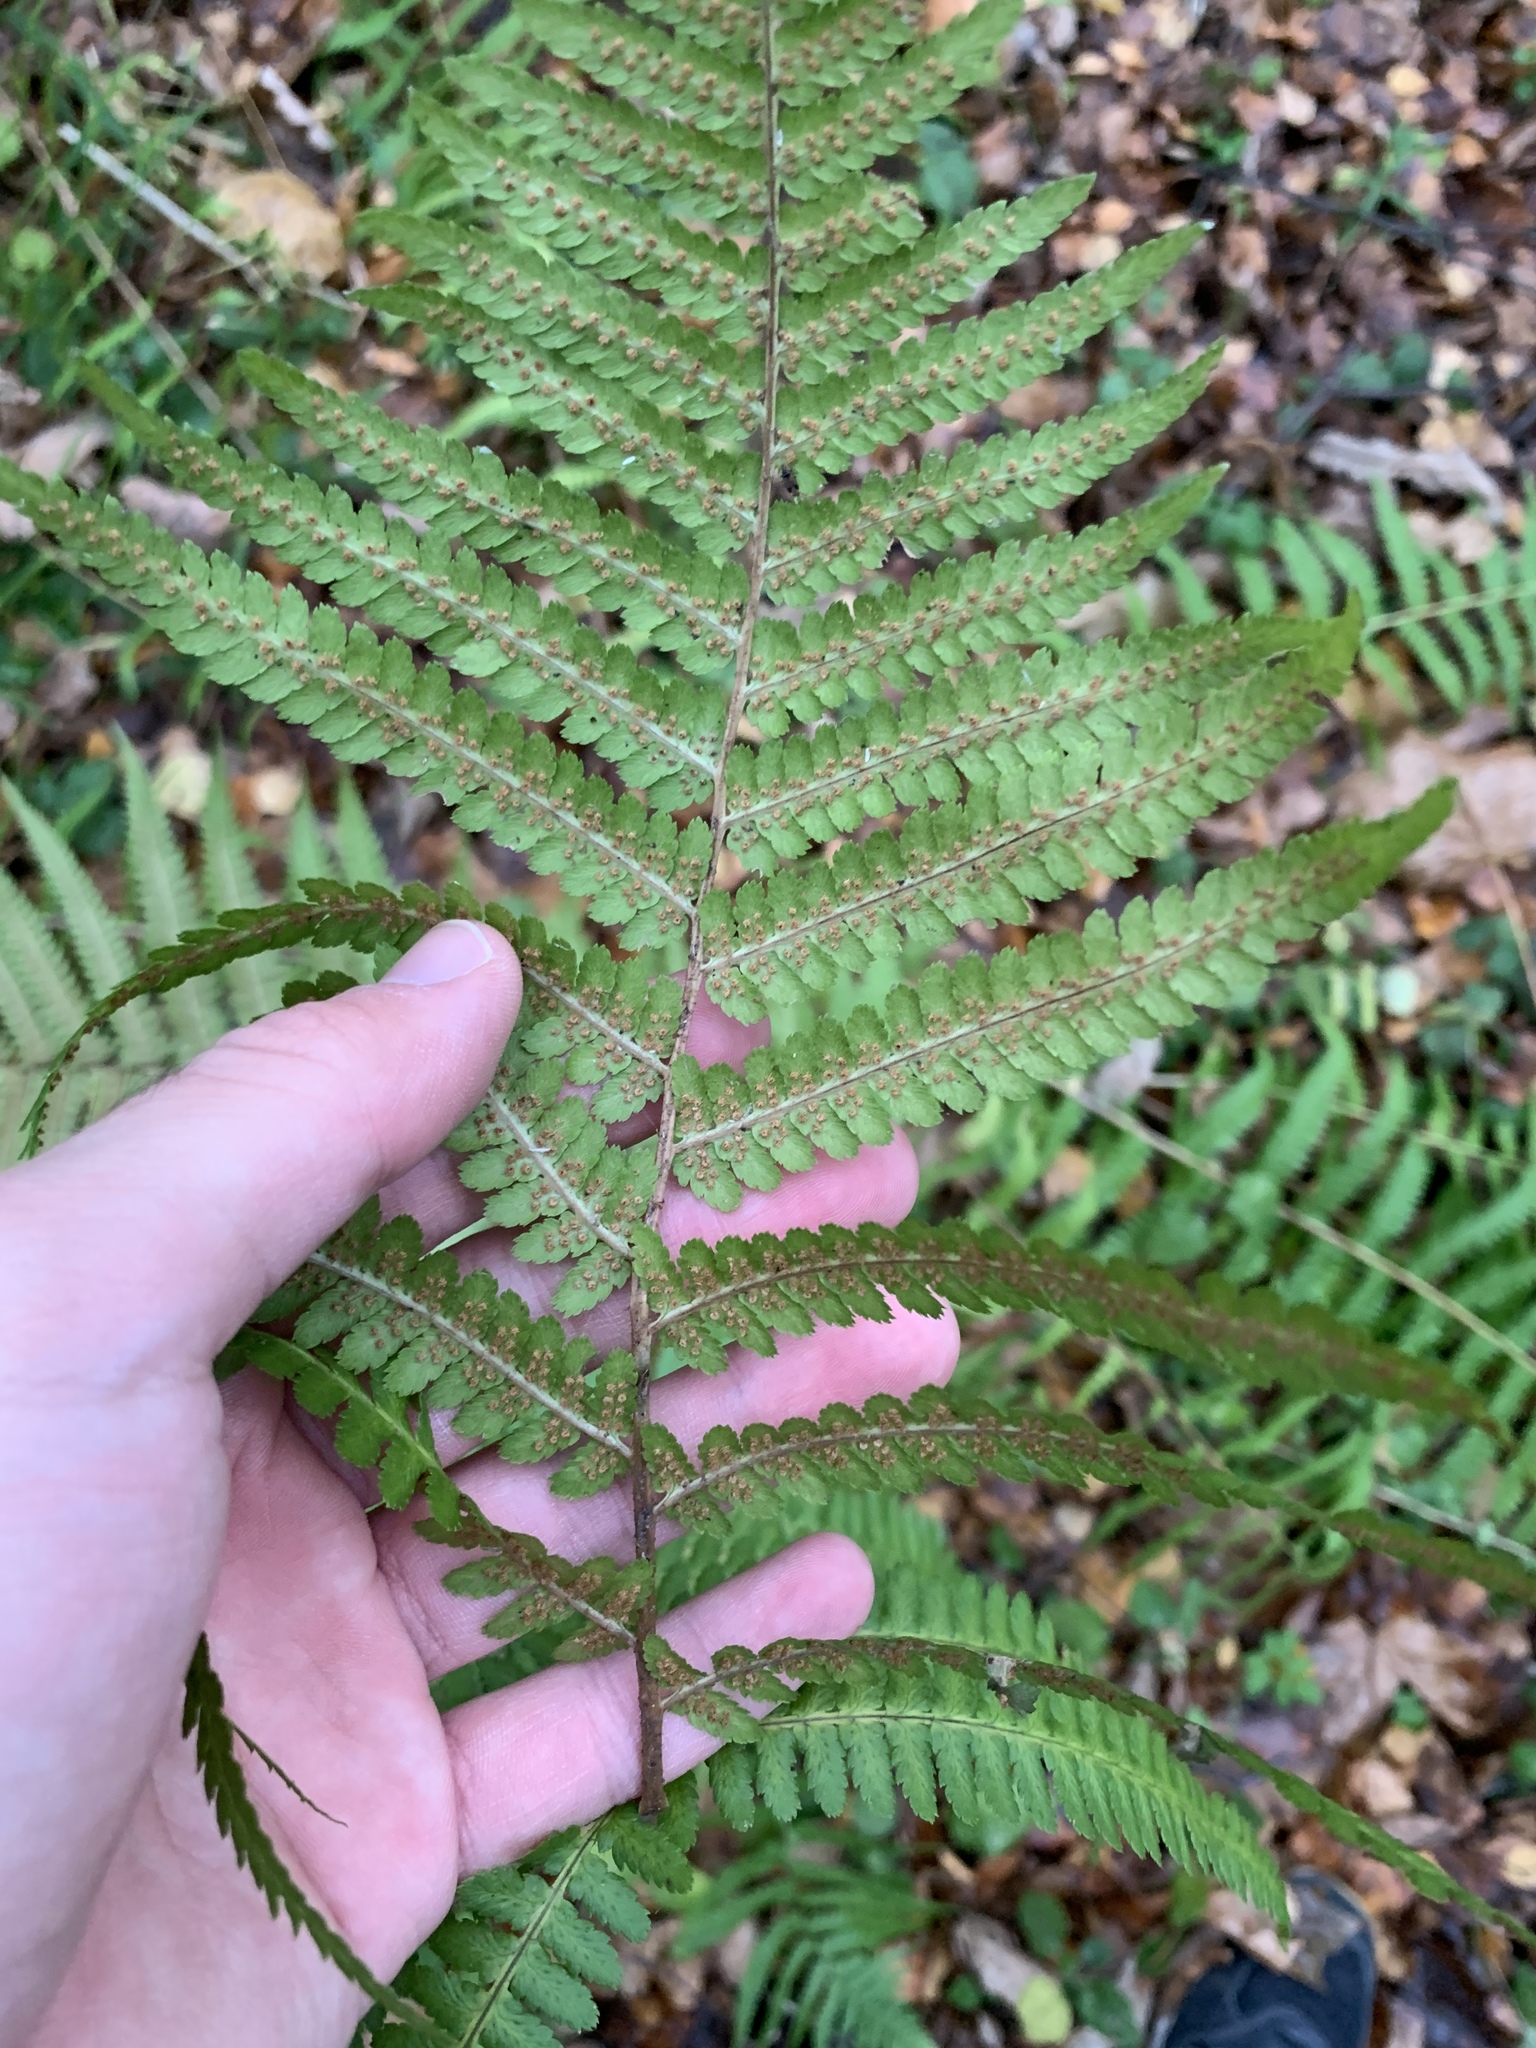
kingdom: Plantae
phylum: Tracheophyta
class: Polypodiopsida
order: Polypodiales
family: Dryopteridaceae
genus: Dryopteris
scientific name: Dryopteris filix-mas
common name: Male fern
